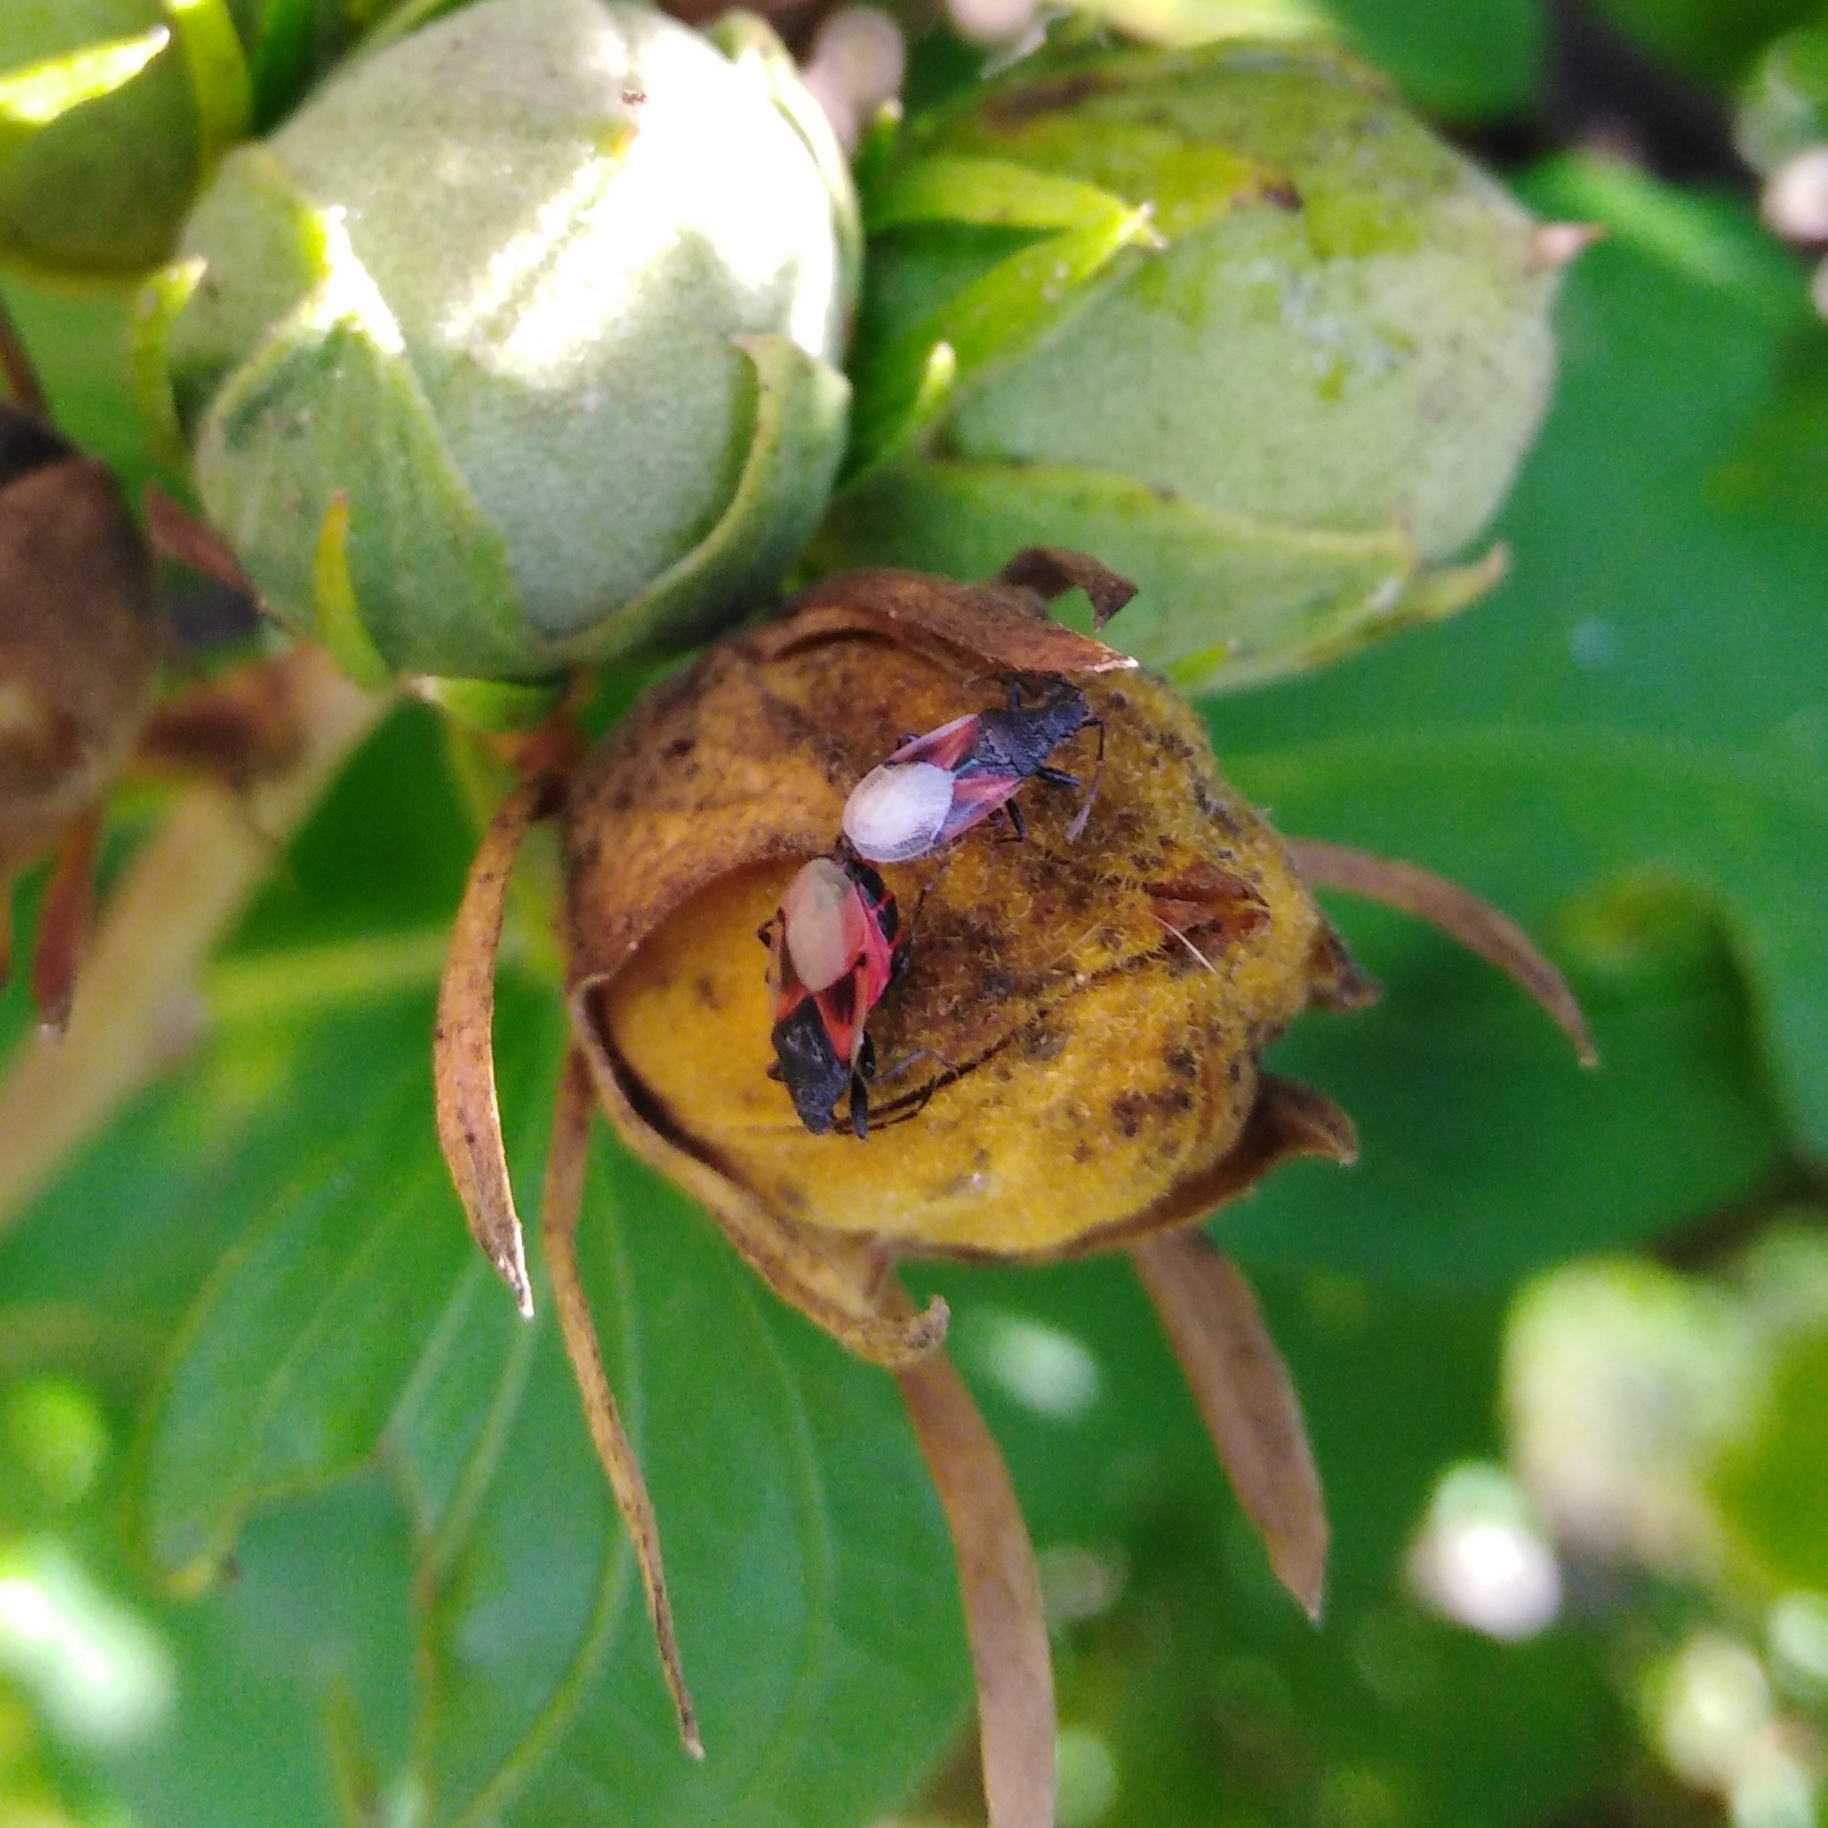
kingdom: Animalia
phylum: Arthropoda
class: Insecta
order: Hemiptera
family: Oxycarenidae
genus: Oxycarenus
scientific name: Oxycarenus lavaterae
